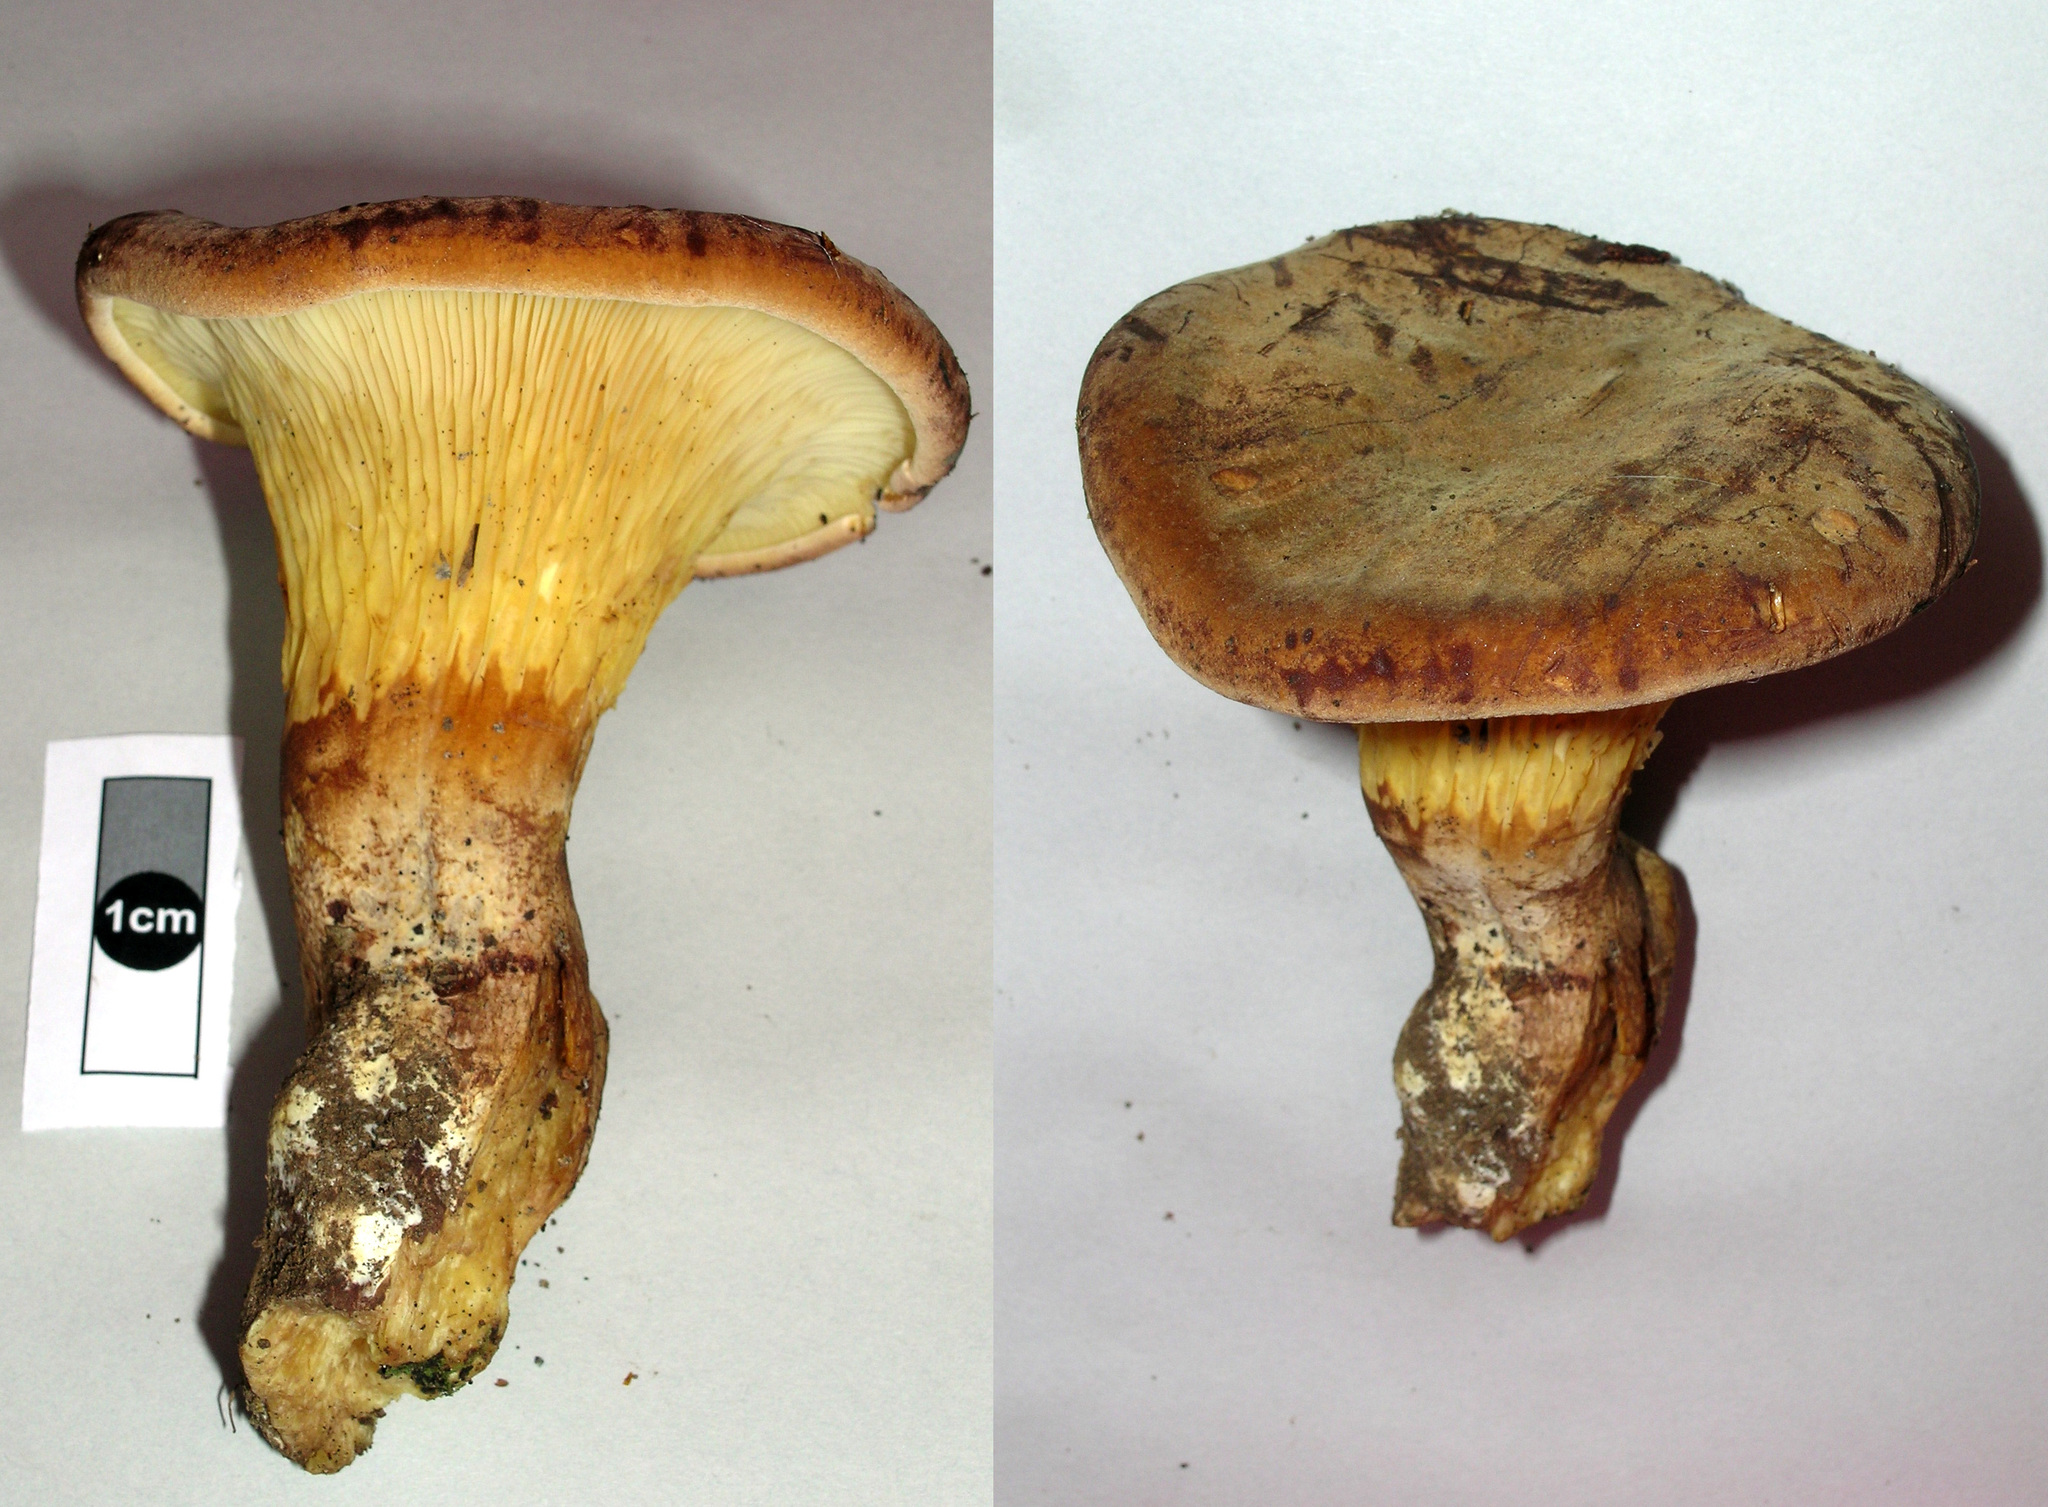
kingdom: Fungi
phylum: Basidiomycota
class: Agaricomycetes
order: Boletales
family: Serpulaceae
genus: Austropaxillus
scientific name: Austropaxillus nothofagi
